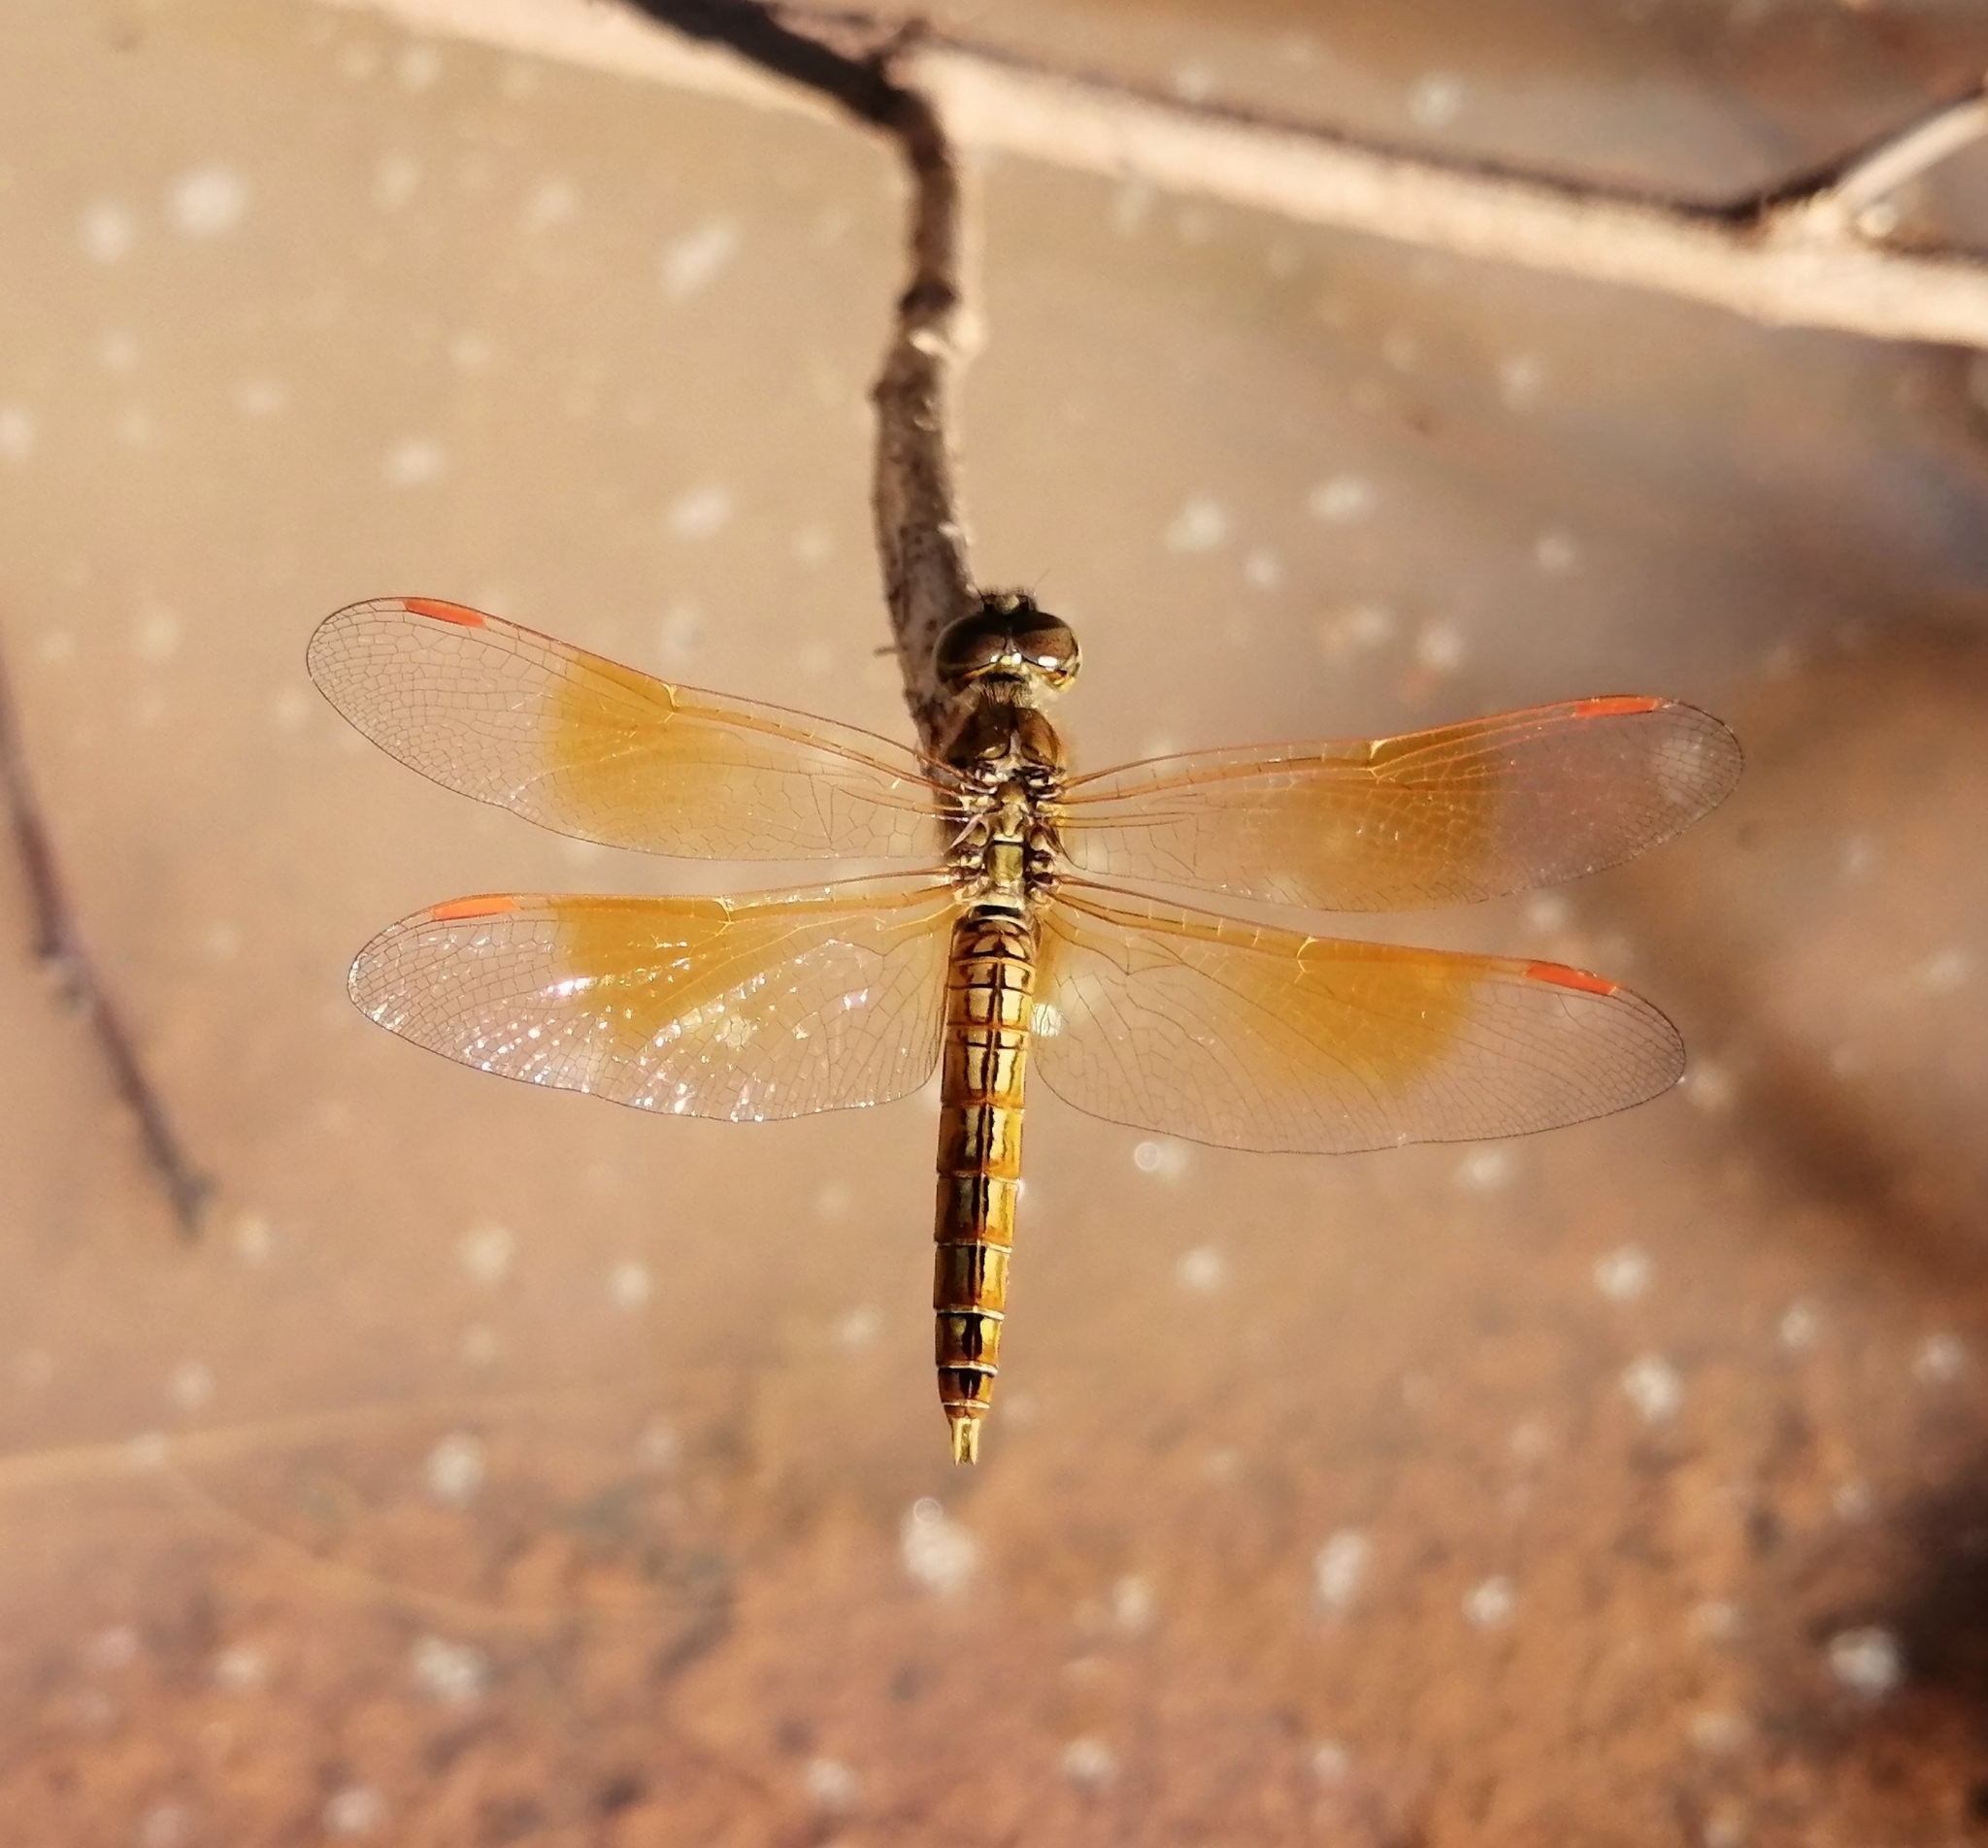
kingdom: Animalia
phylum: Arthropoda
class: Insecta
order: Odonata
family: Libellulidae
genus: Brachythemis
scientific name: Brachythemis contaminata
